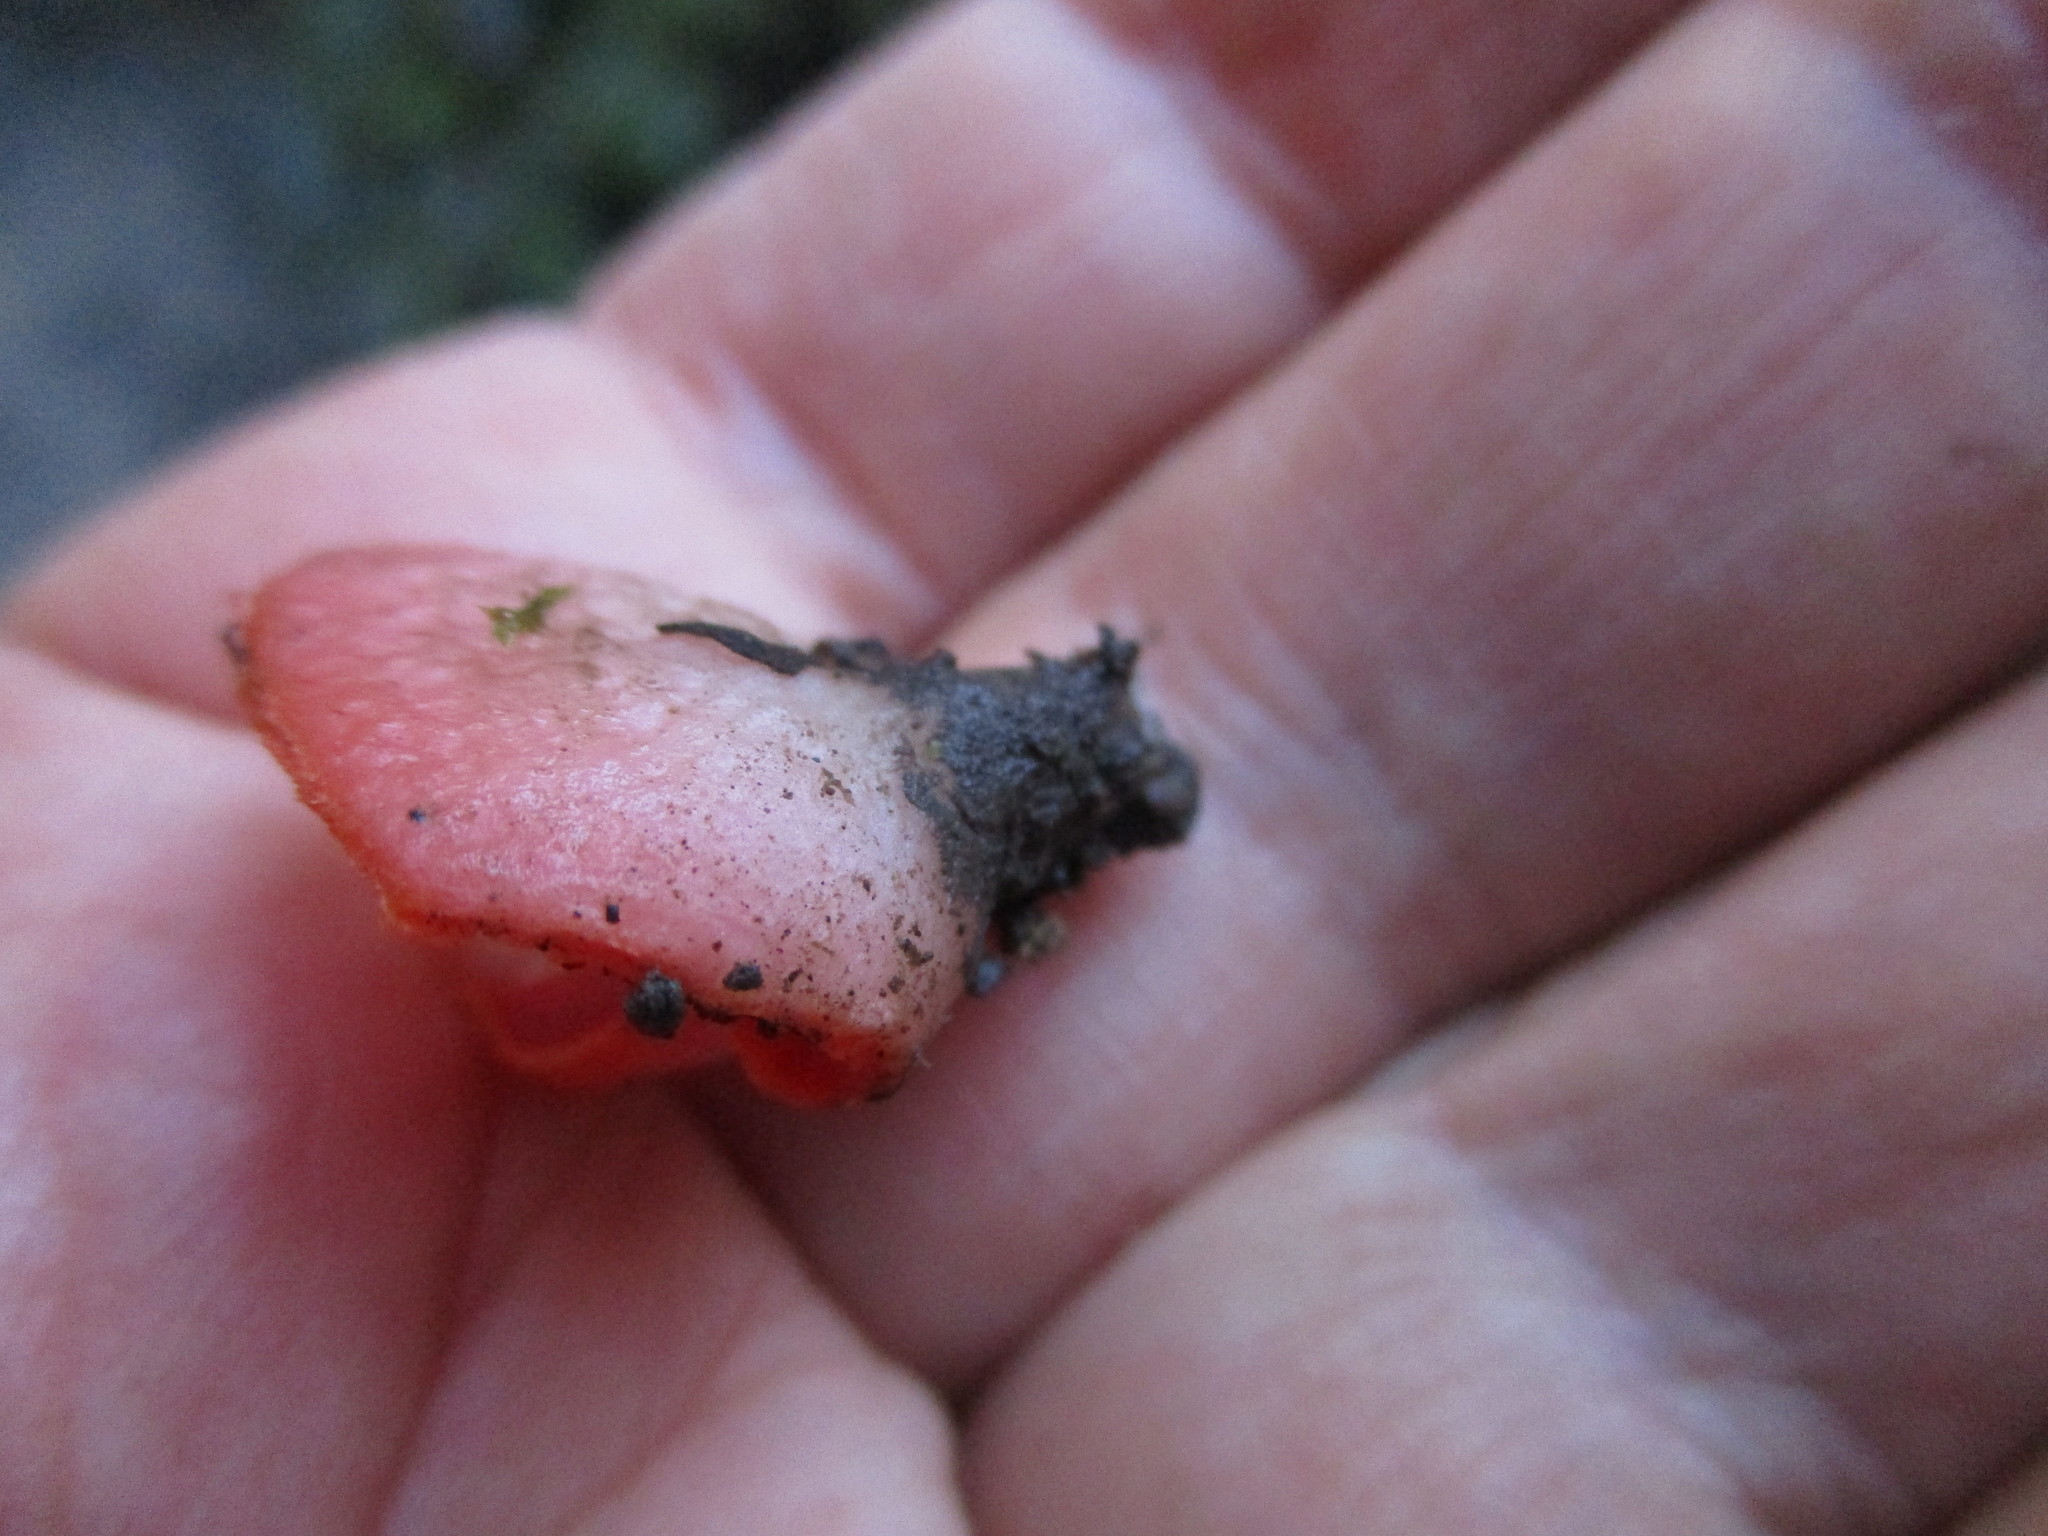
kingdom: Fungi
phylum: Ascomycota
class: Pezizomycetes
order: Pezizales
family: Sarcoscyphaceae
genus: Sarcoscypha
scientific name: Sarcoscypha coccinea
